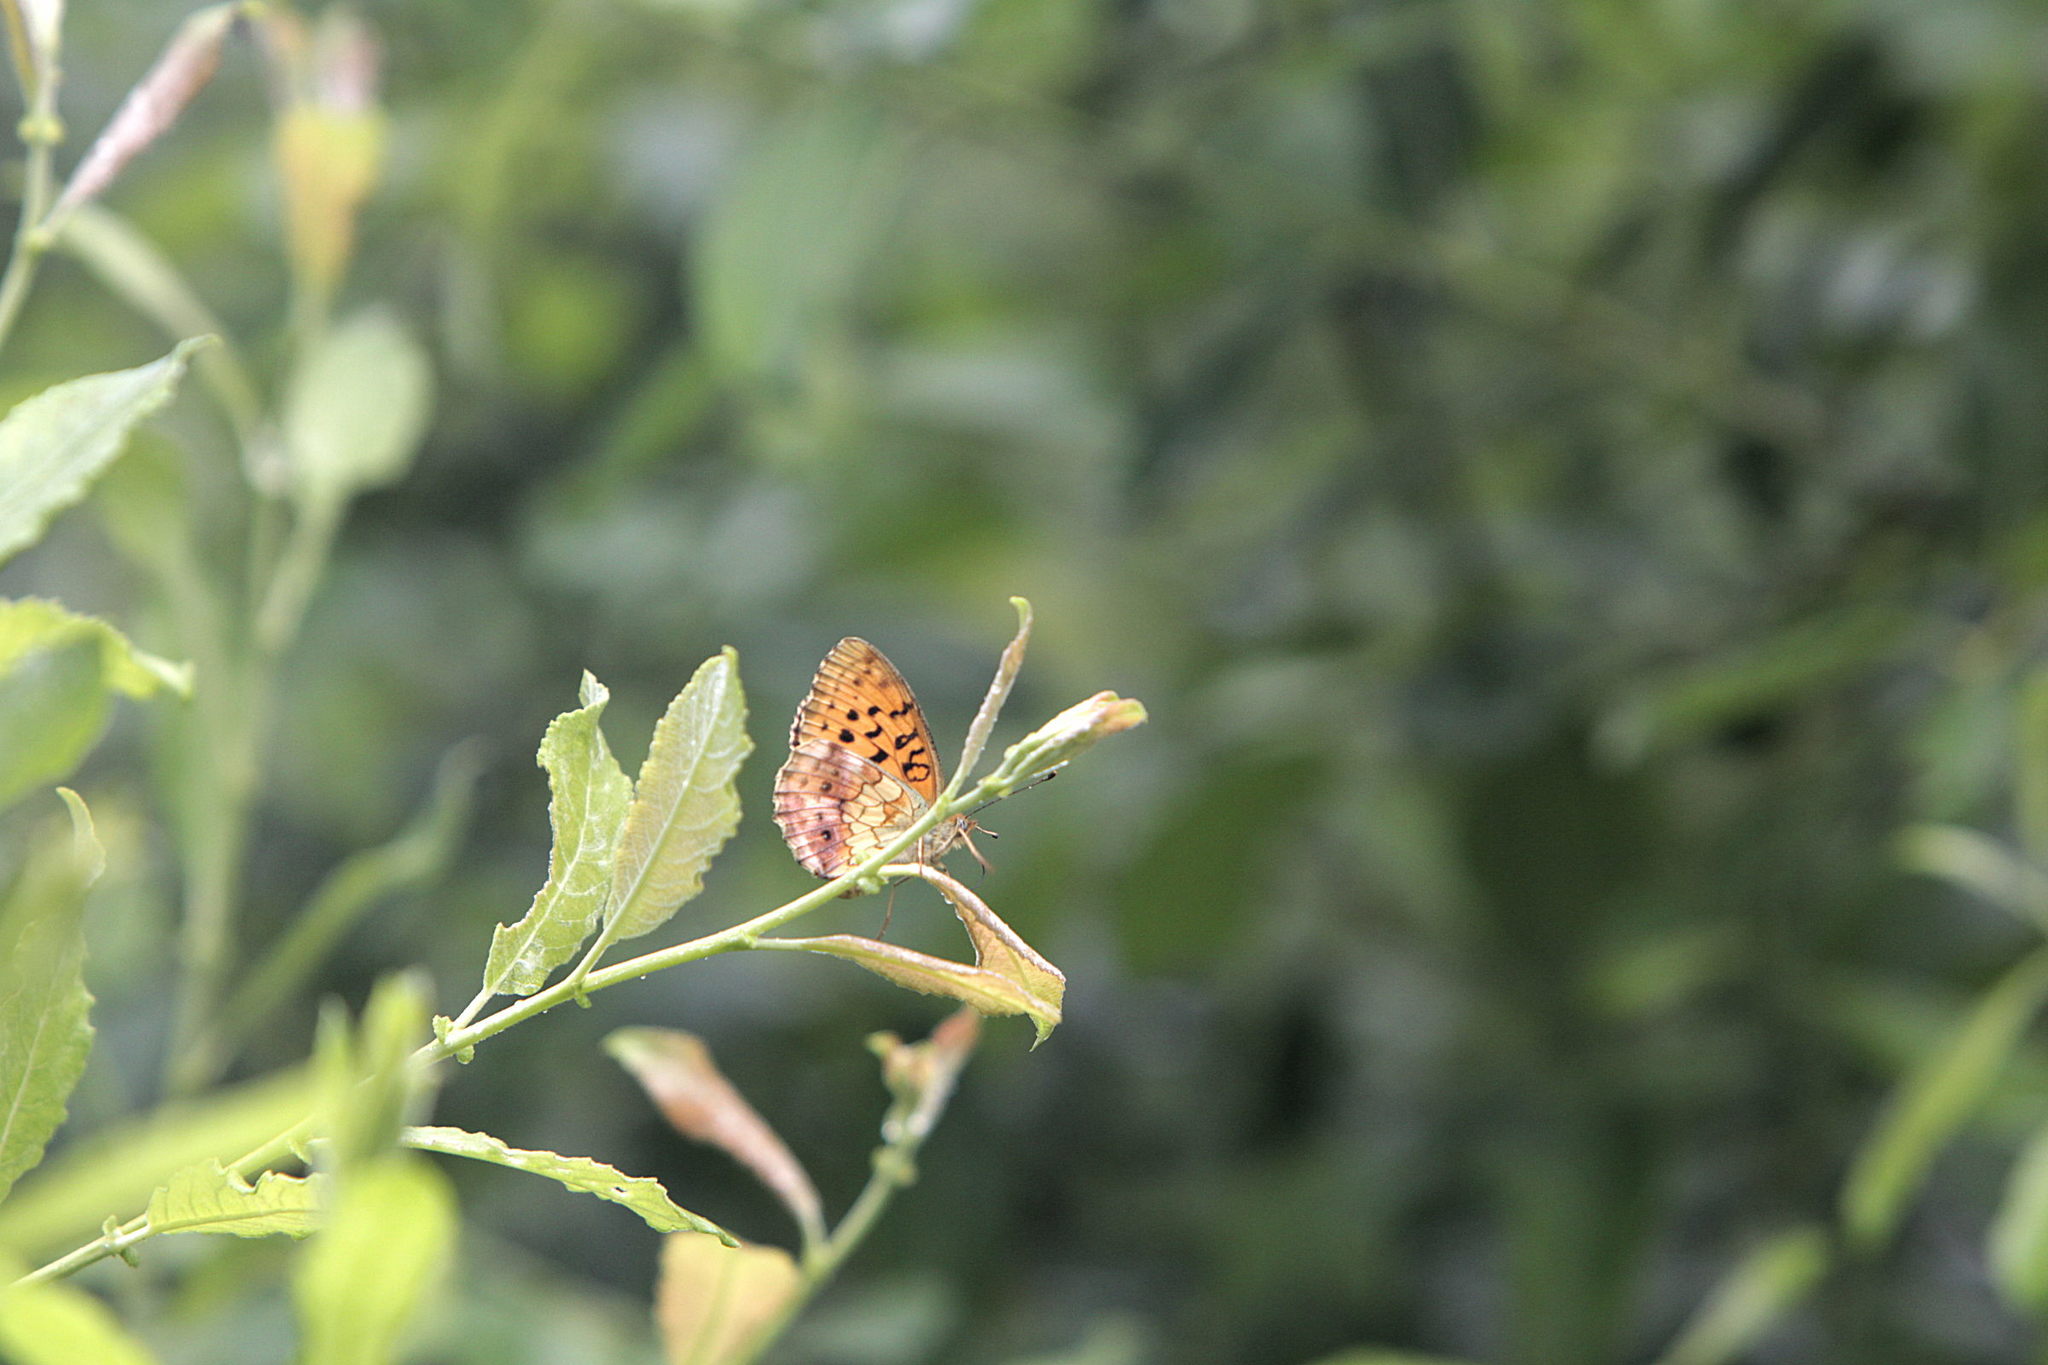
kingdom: Animalia
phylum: Arthropoda
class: Insecta
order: Lepidoptera
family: Nymphalidae
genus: Brenthis
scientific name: Brenthis daphne
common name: Marbled fritillary
